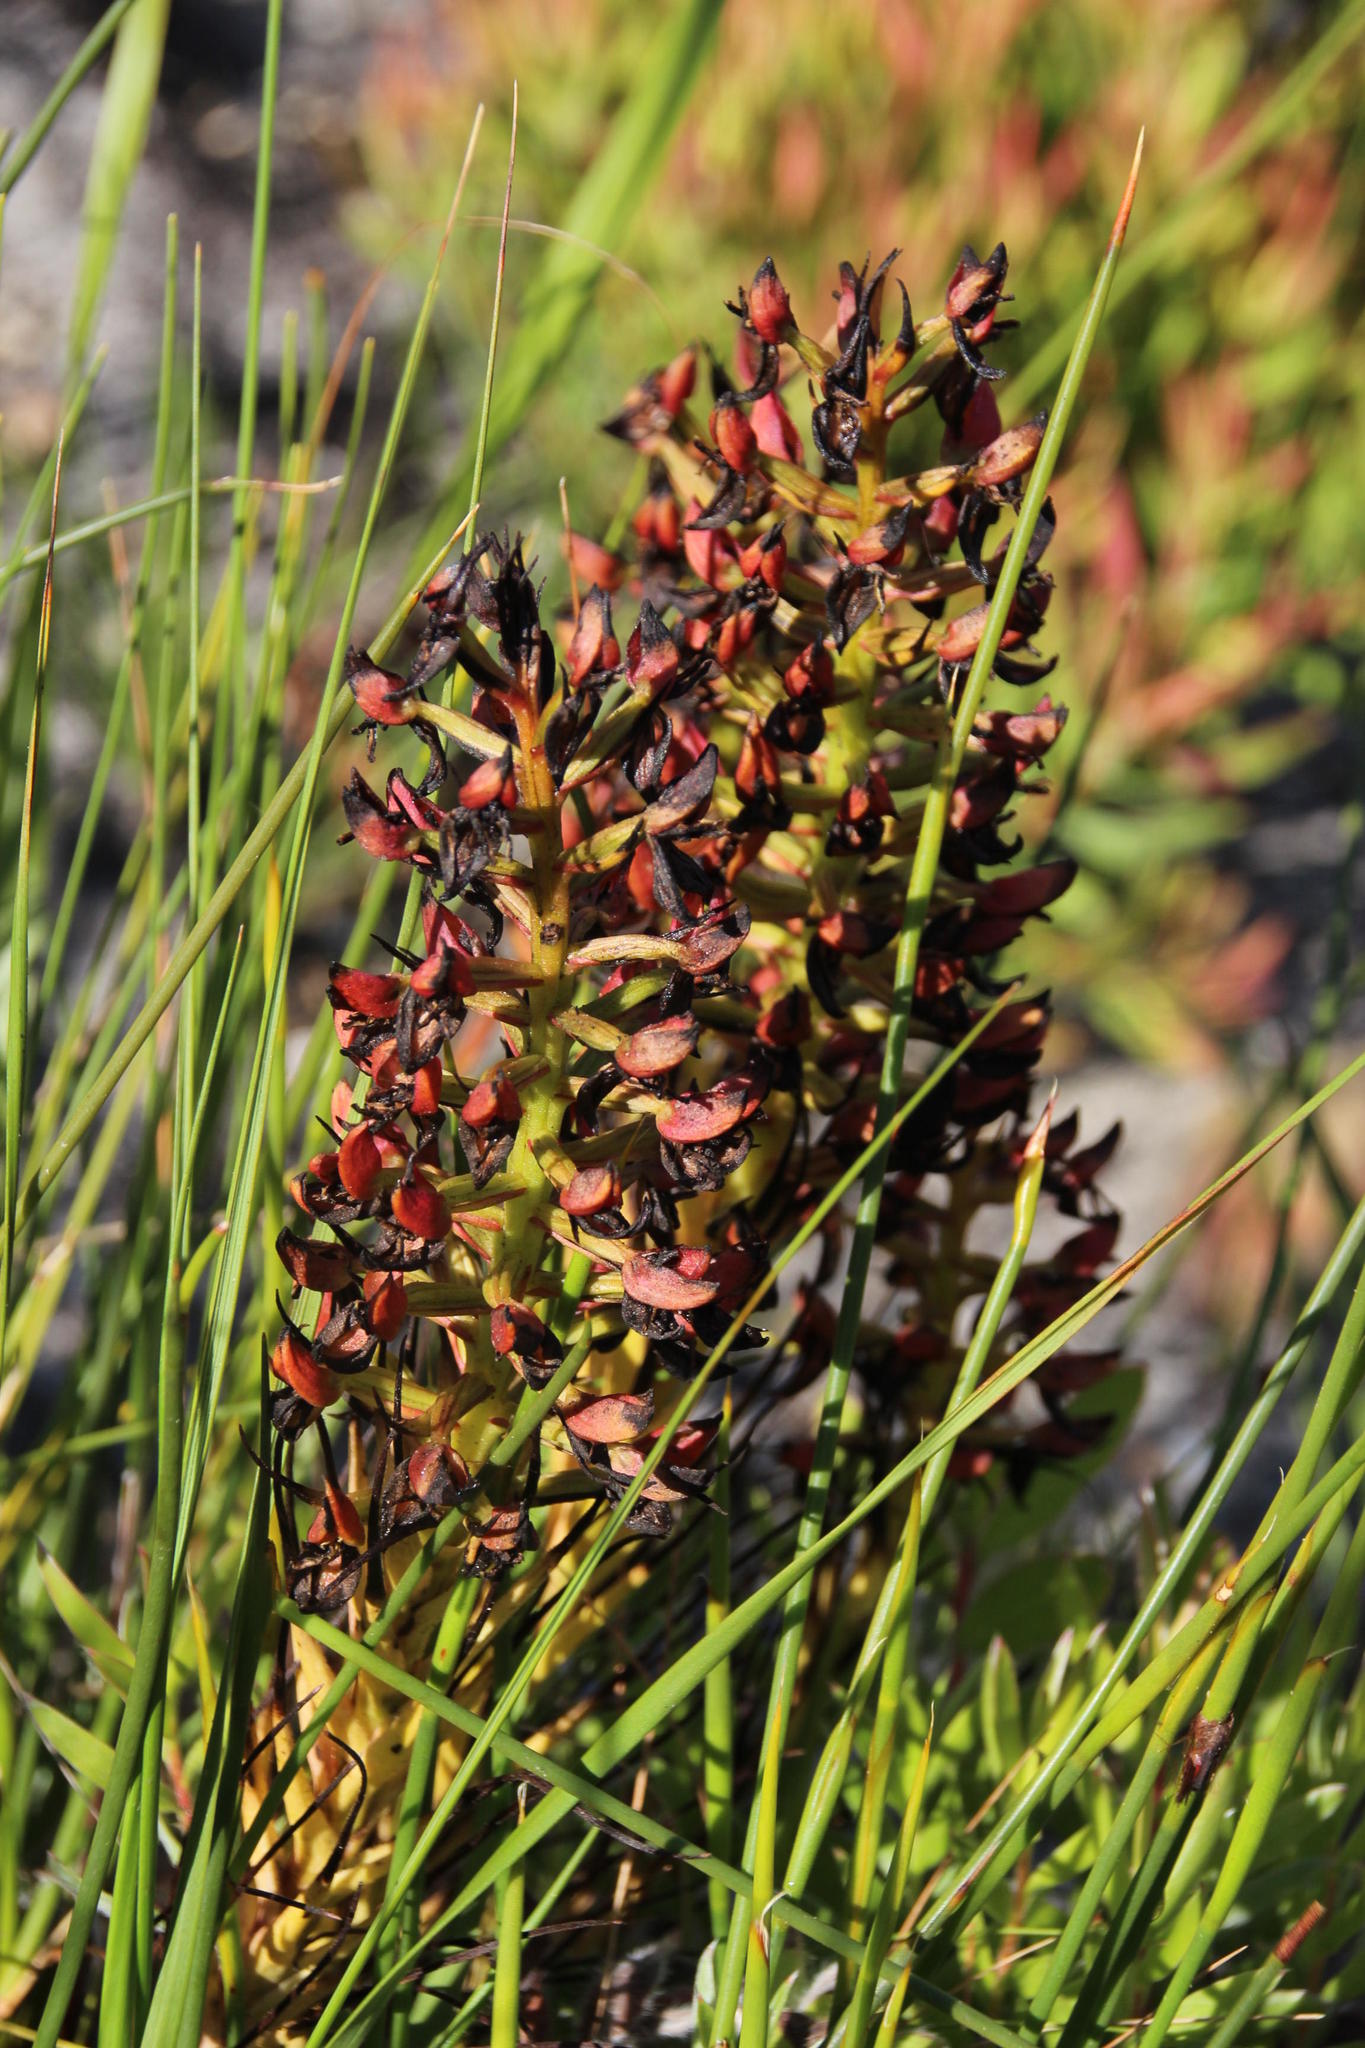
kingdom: Plantae
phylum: Tracheophyta
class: Liliopsida
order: Asparagales
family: Orchidaceae
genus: Ceratandra
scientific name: Ceratandra atrata
